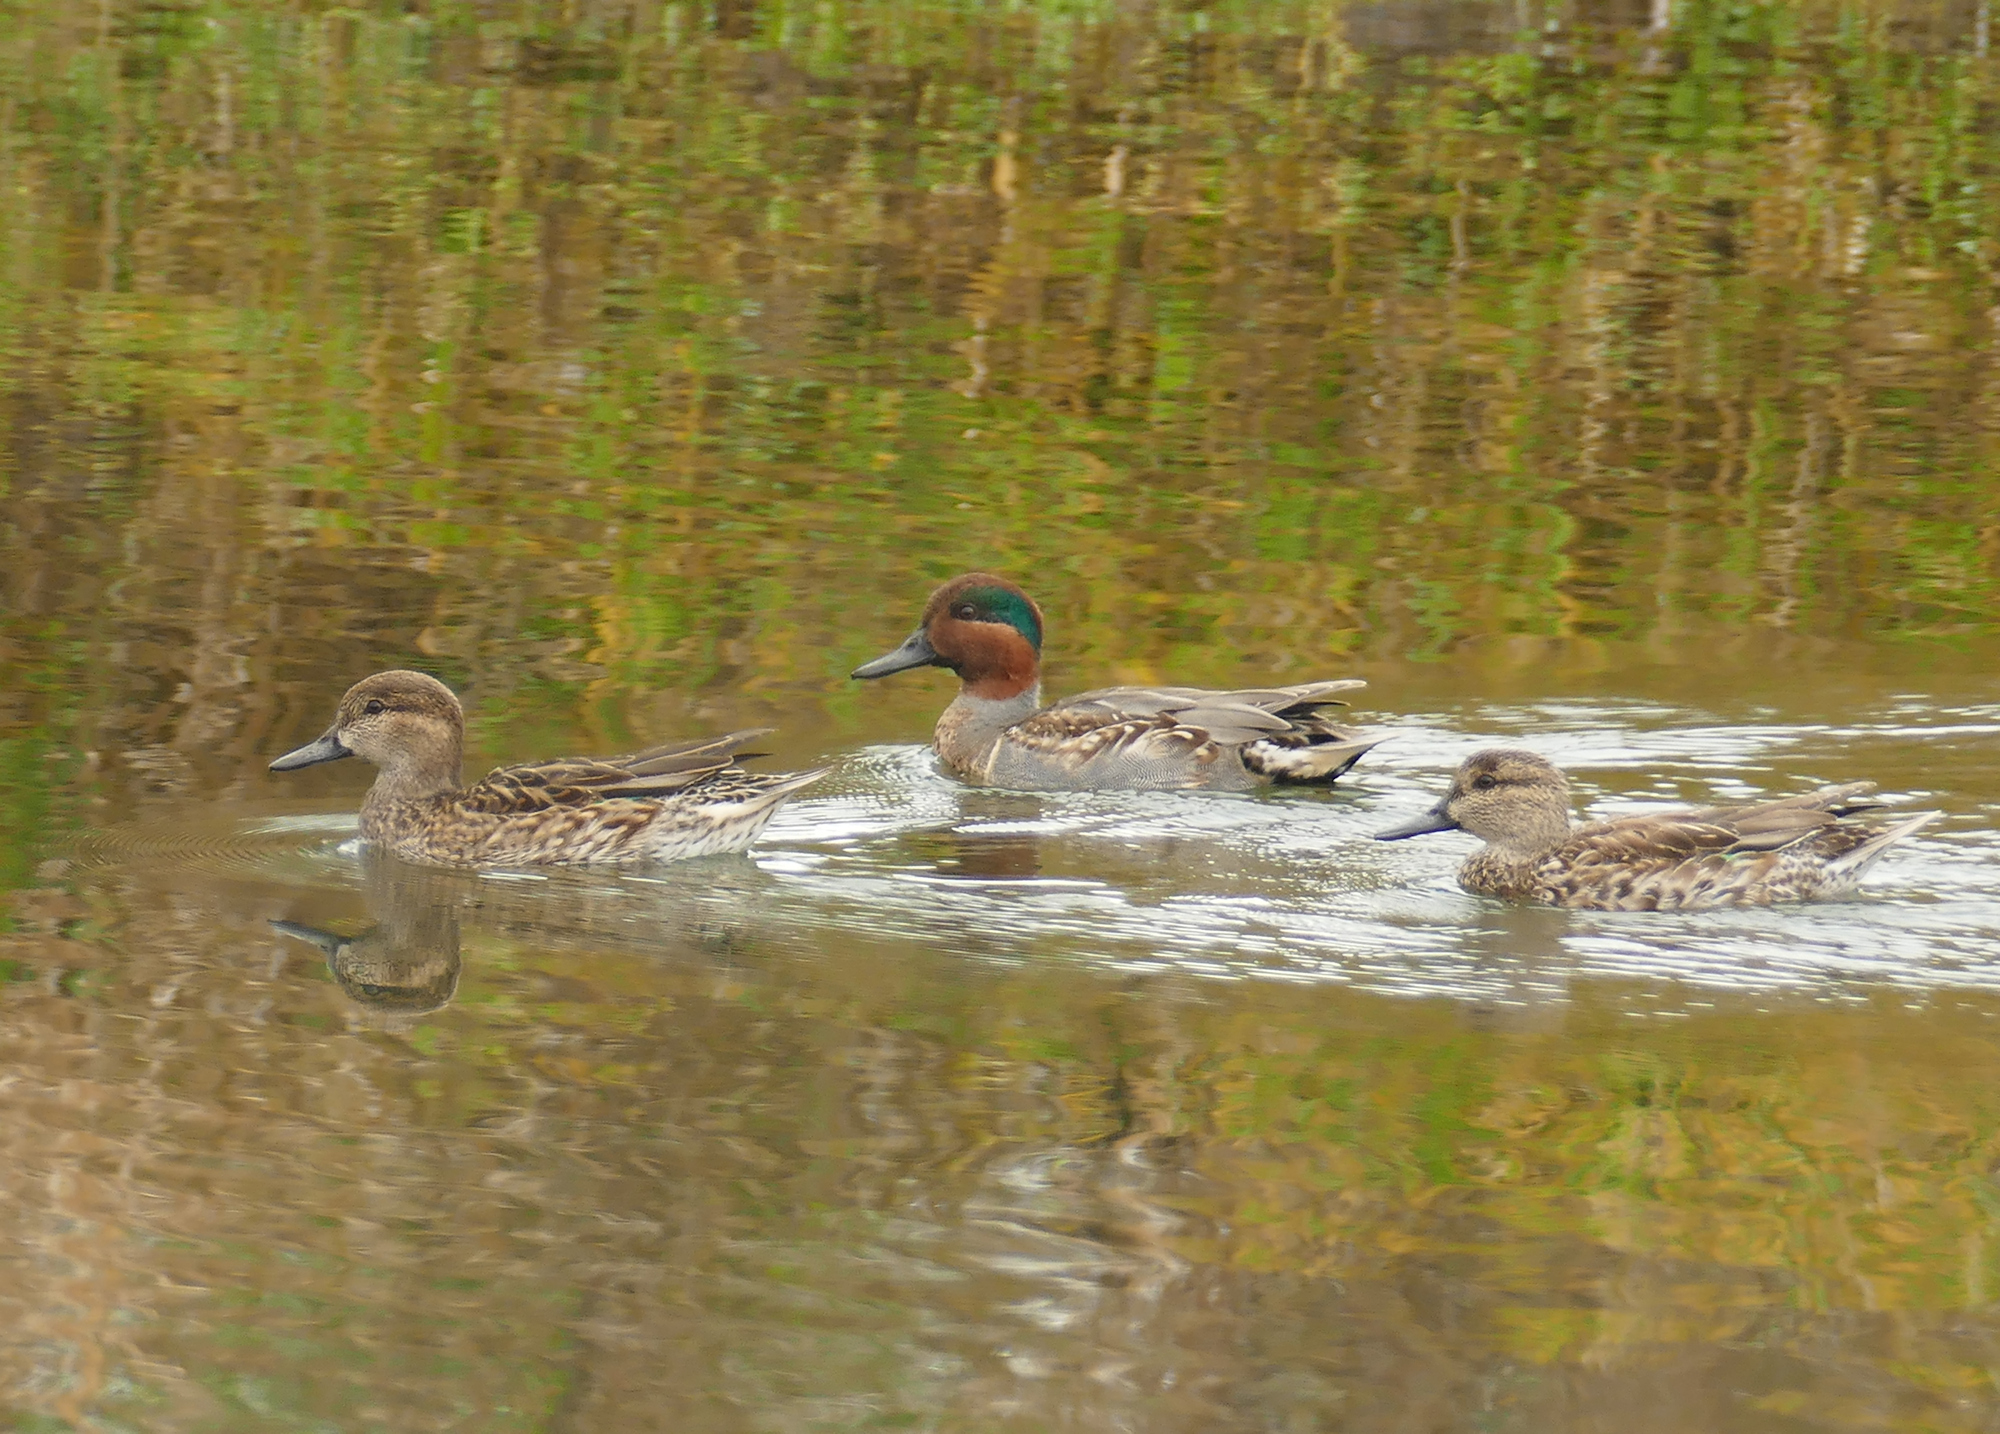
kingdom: Animalia
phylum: Chordata
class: Aves
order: Anseriformes
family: Anatidae
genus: Anas
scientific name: Anas crecca
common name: Eurasian teal
